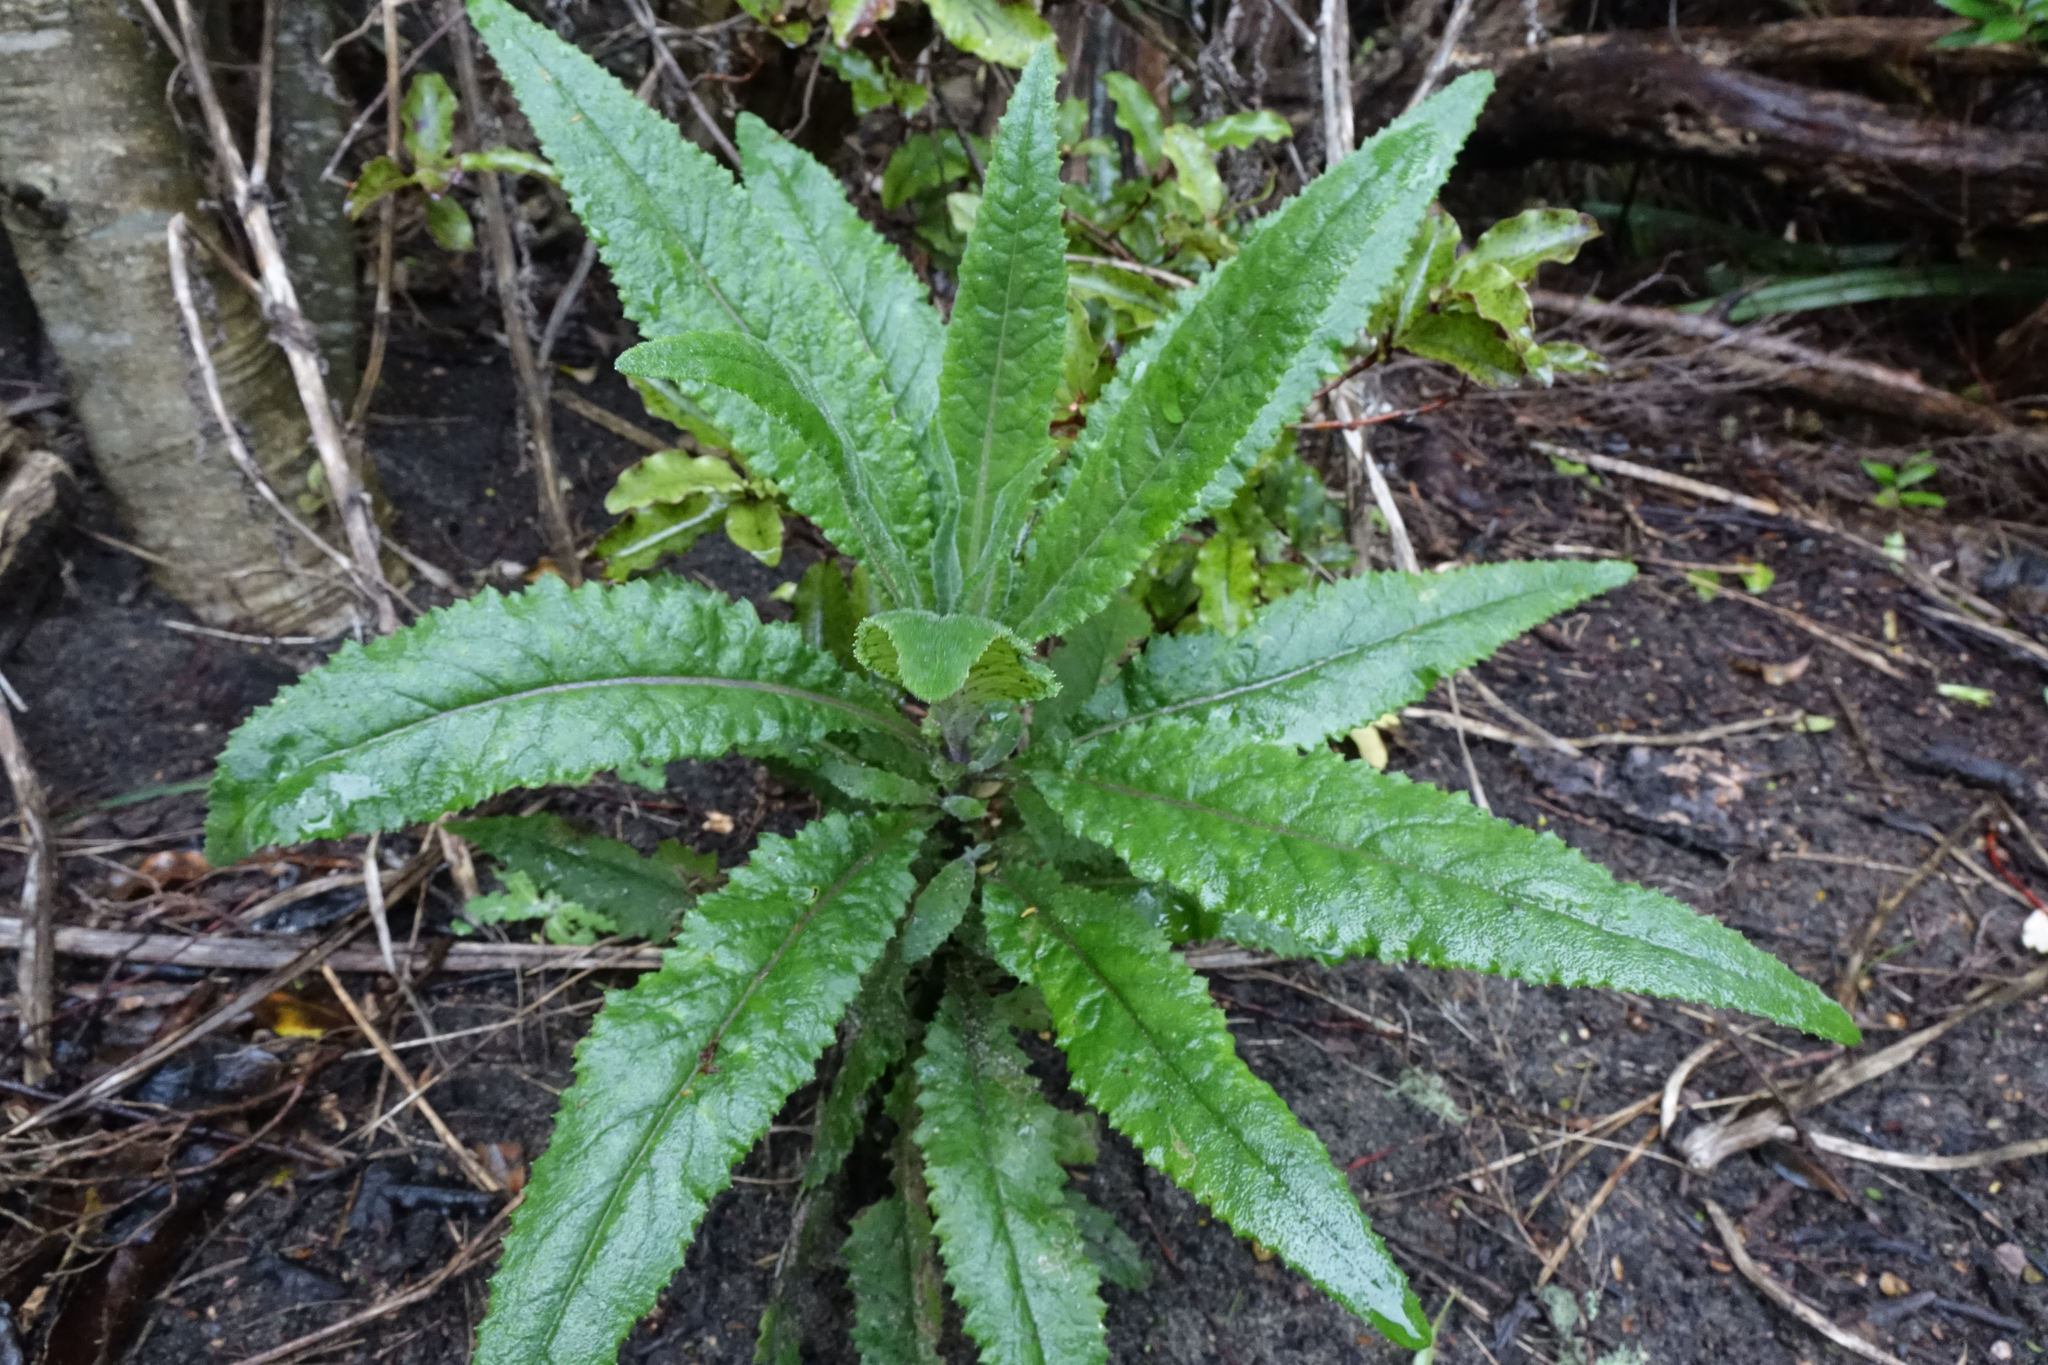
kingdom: Plantae
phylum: Tracheophyta
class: Magnoliopsida
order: Asterales
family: Asteraceae
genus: Senecio
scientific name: Senecio minimus
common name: Toothed fireweed
